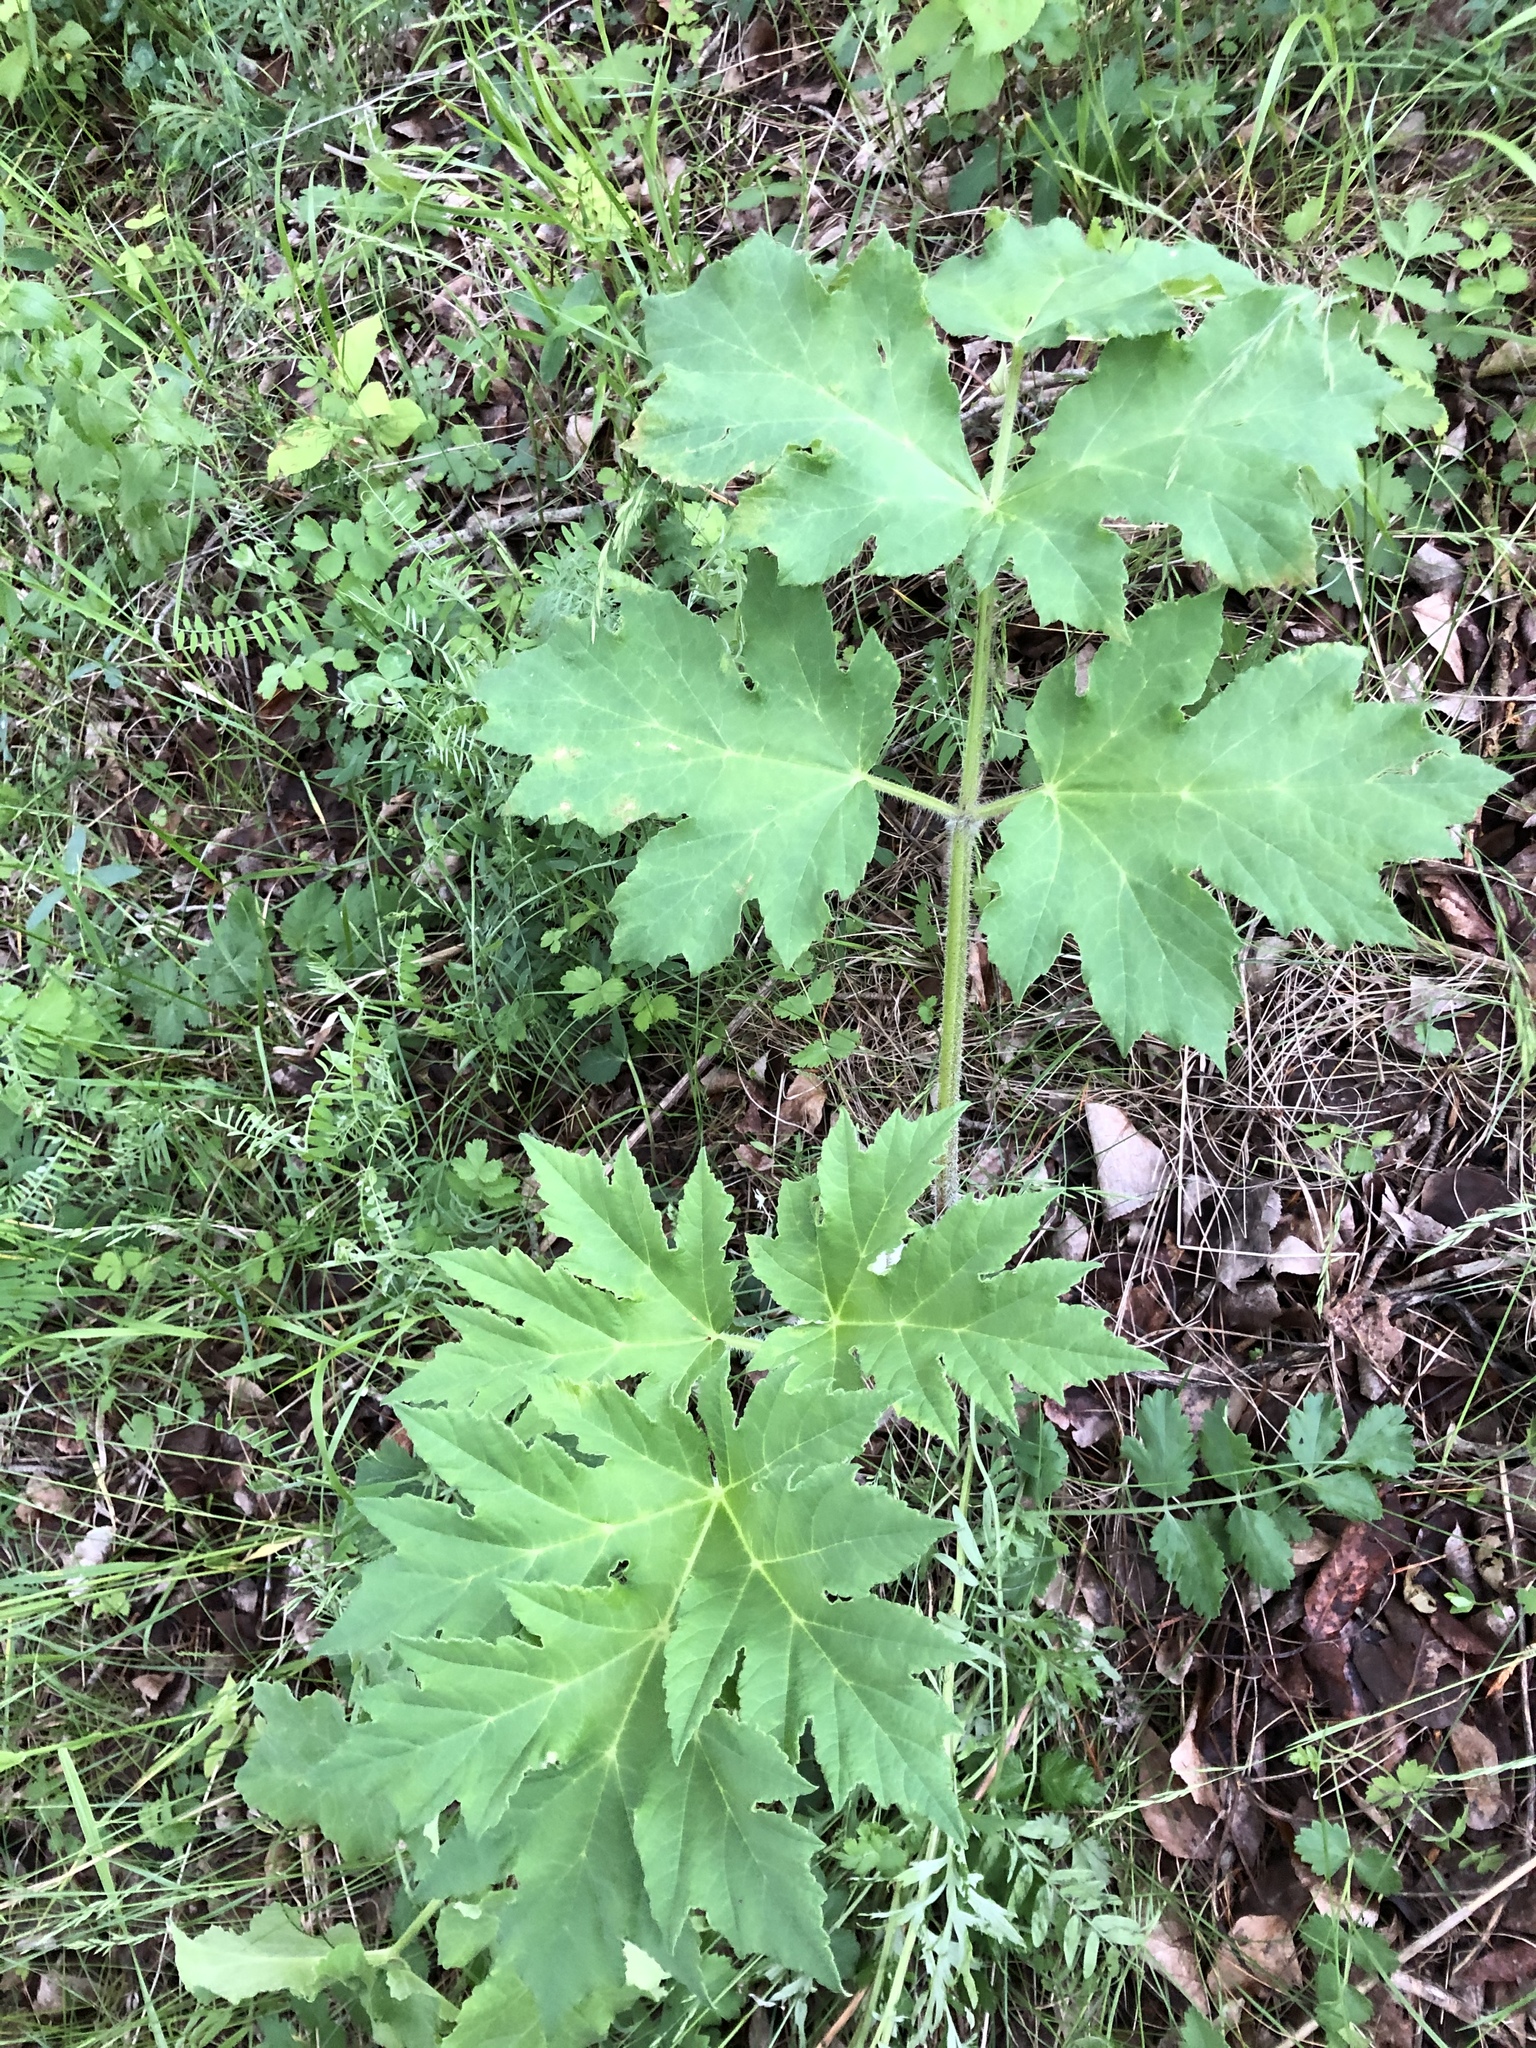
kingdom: Plantae
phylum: Tracheophyta
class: Magnoliopsida
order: Apiales
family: Apiaceae
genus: Heracleum
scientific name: Heracleum sphondylium
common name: Hogweed
